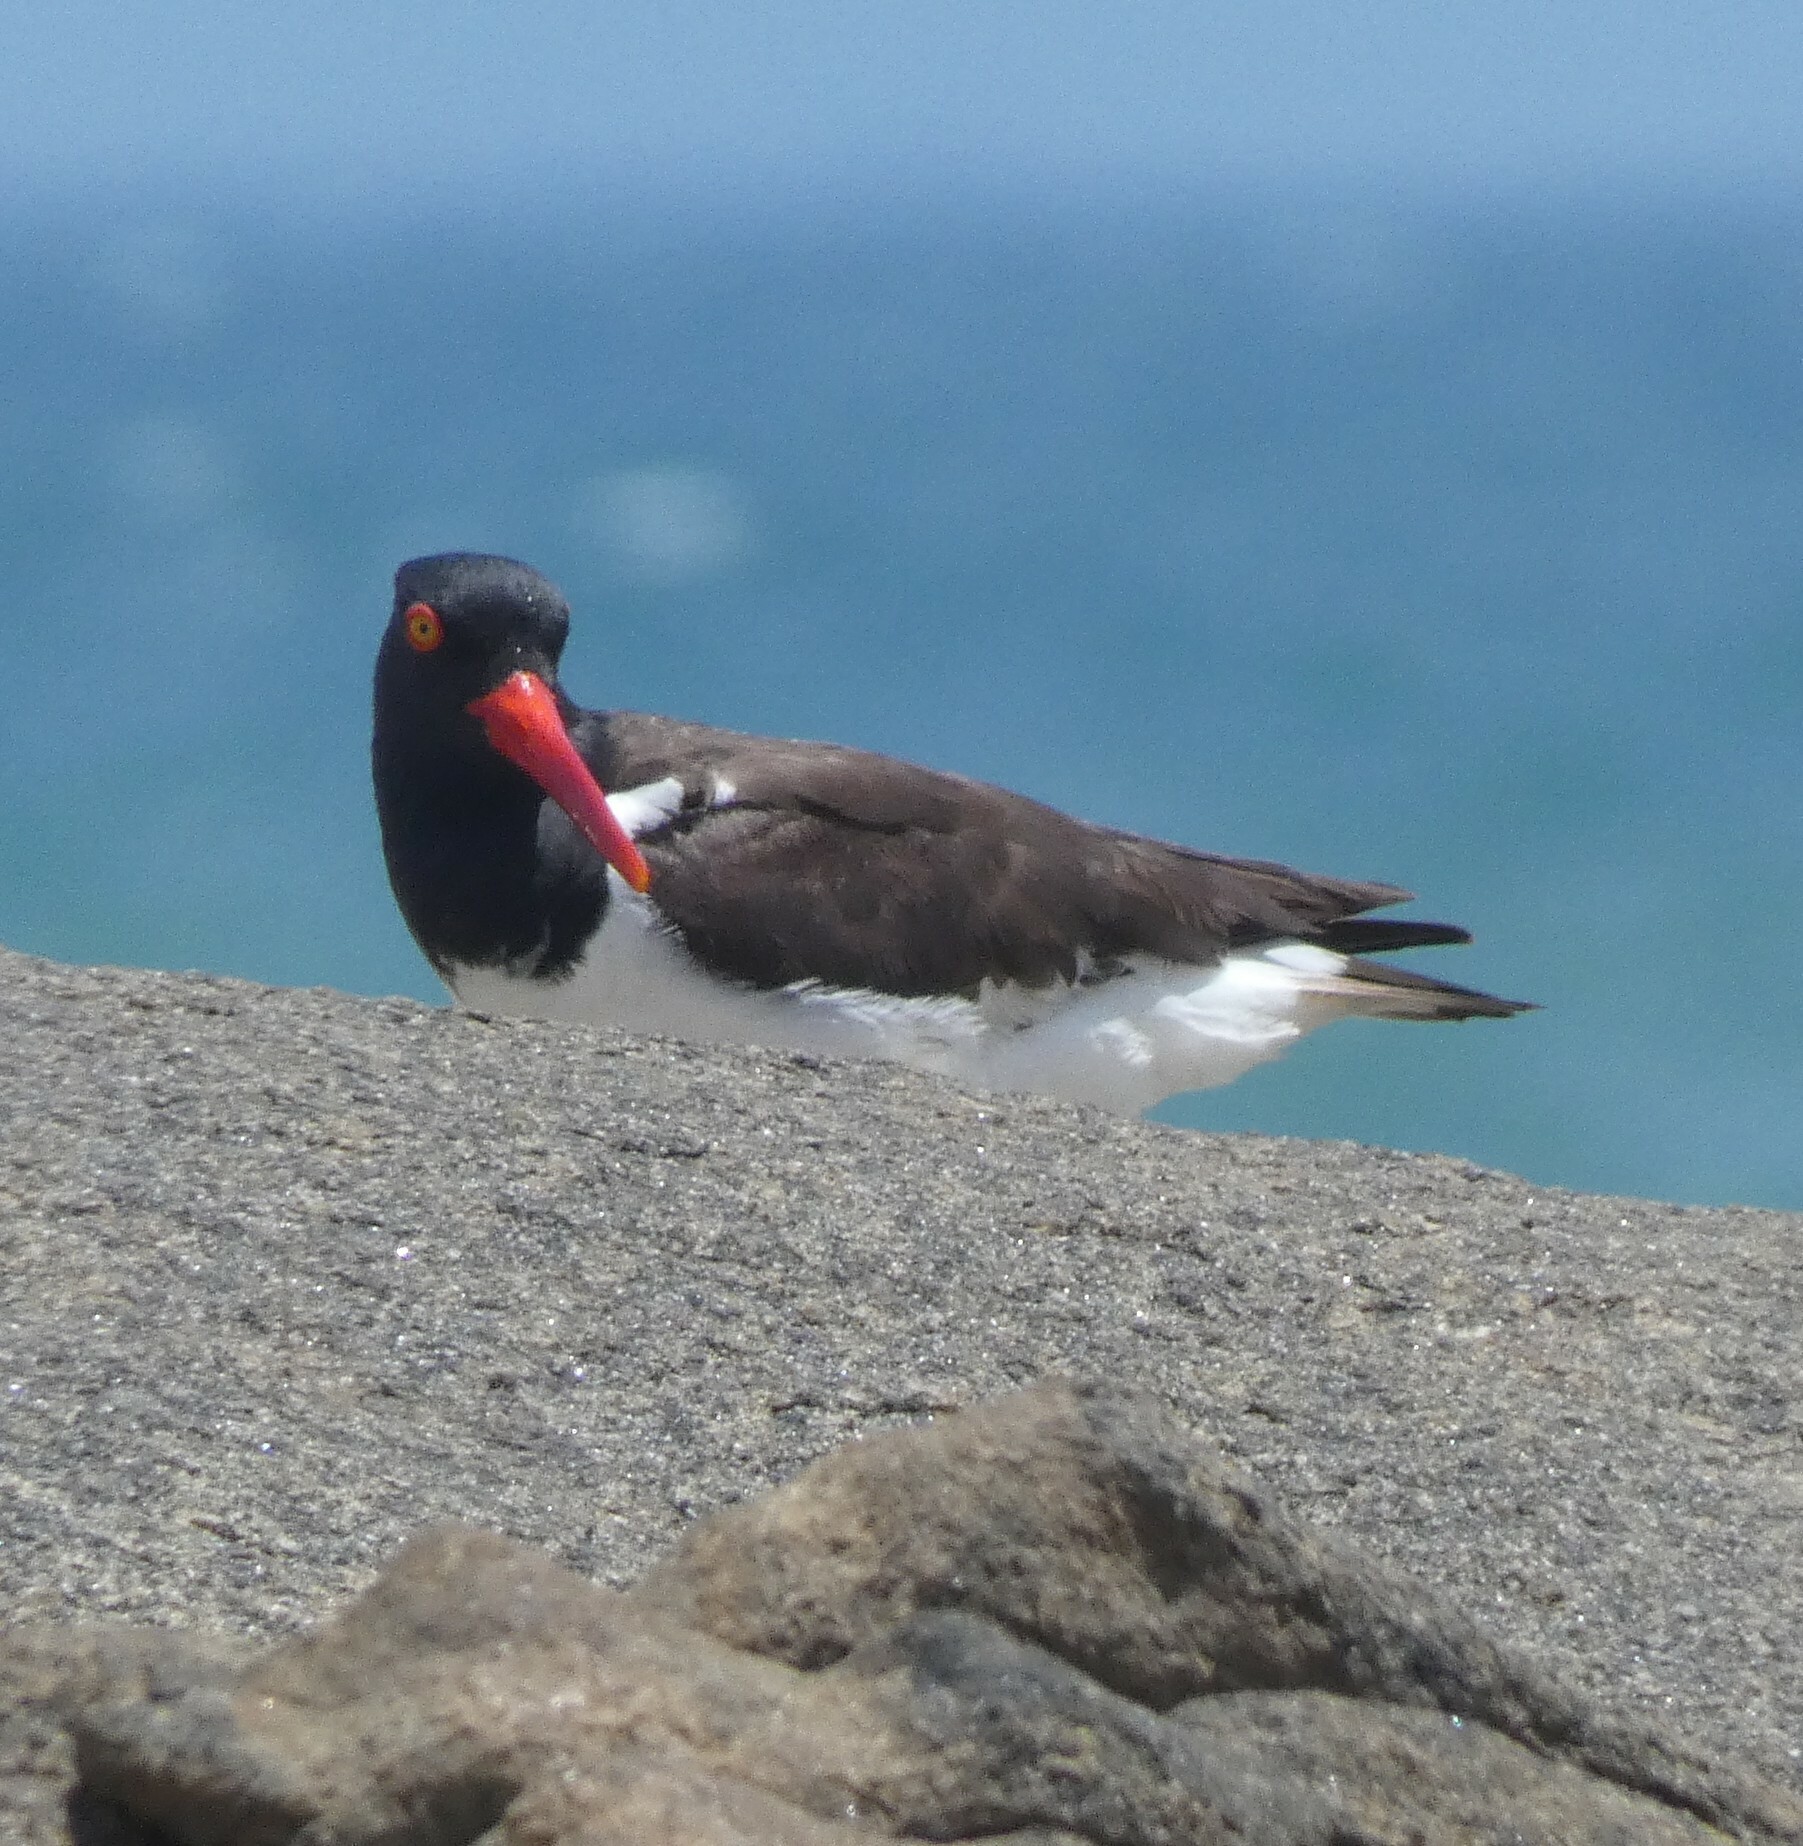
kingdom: Animalia
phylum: Chordata
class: Aves
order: Charadriiformes
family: Haematopodidae
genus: Haematopus
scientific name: Haematopus palliatus
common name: American oystercatcher
